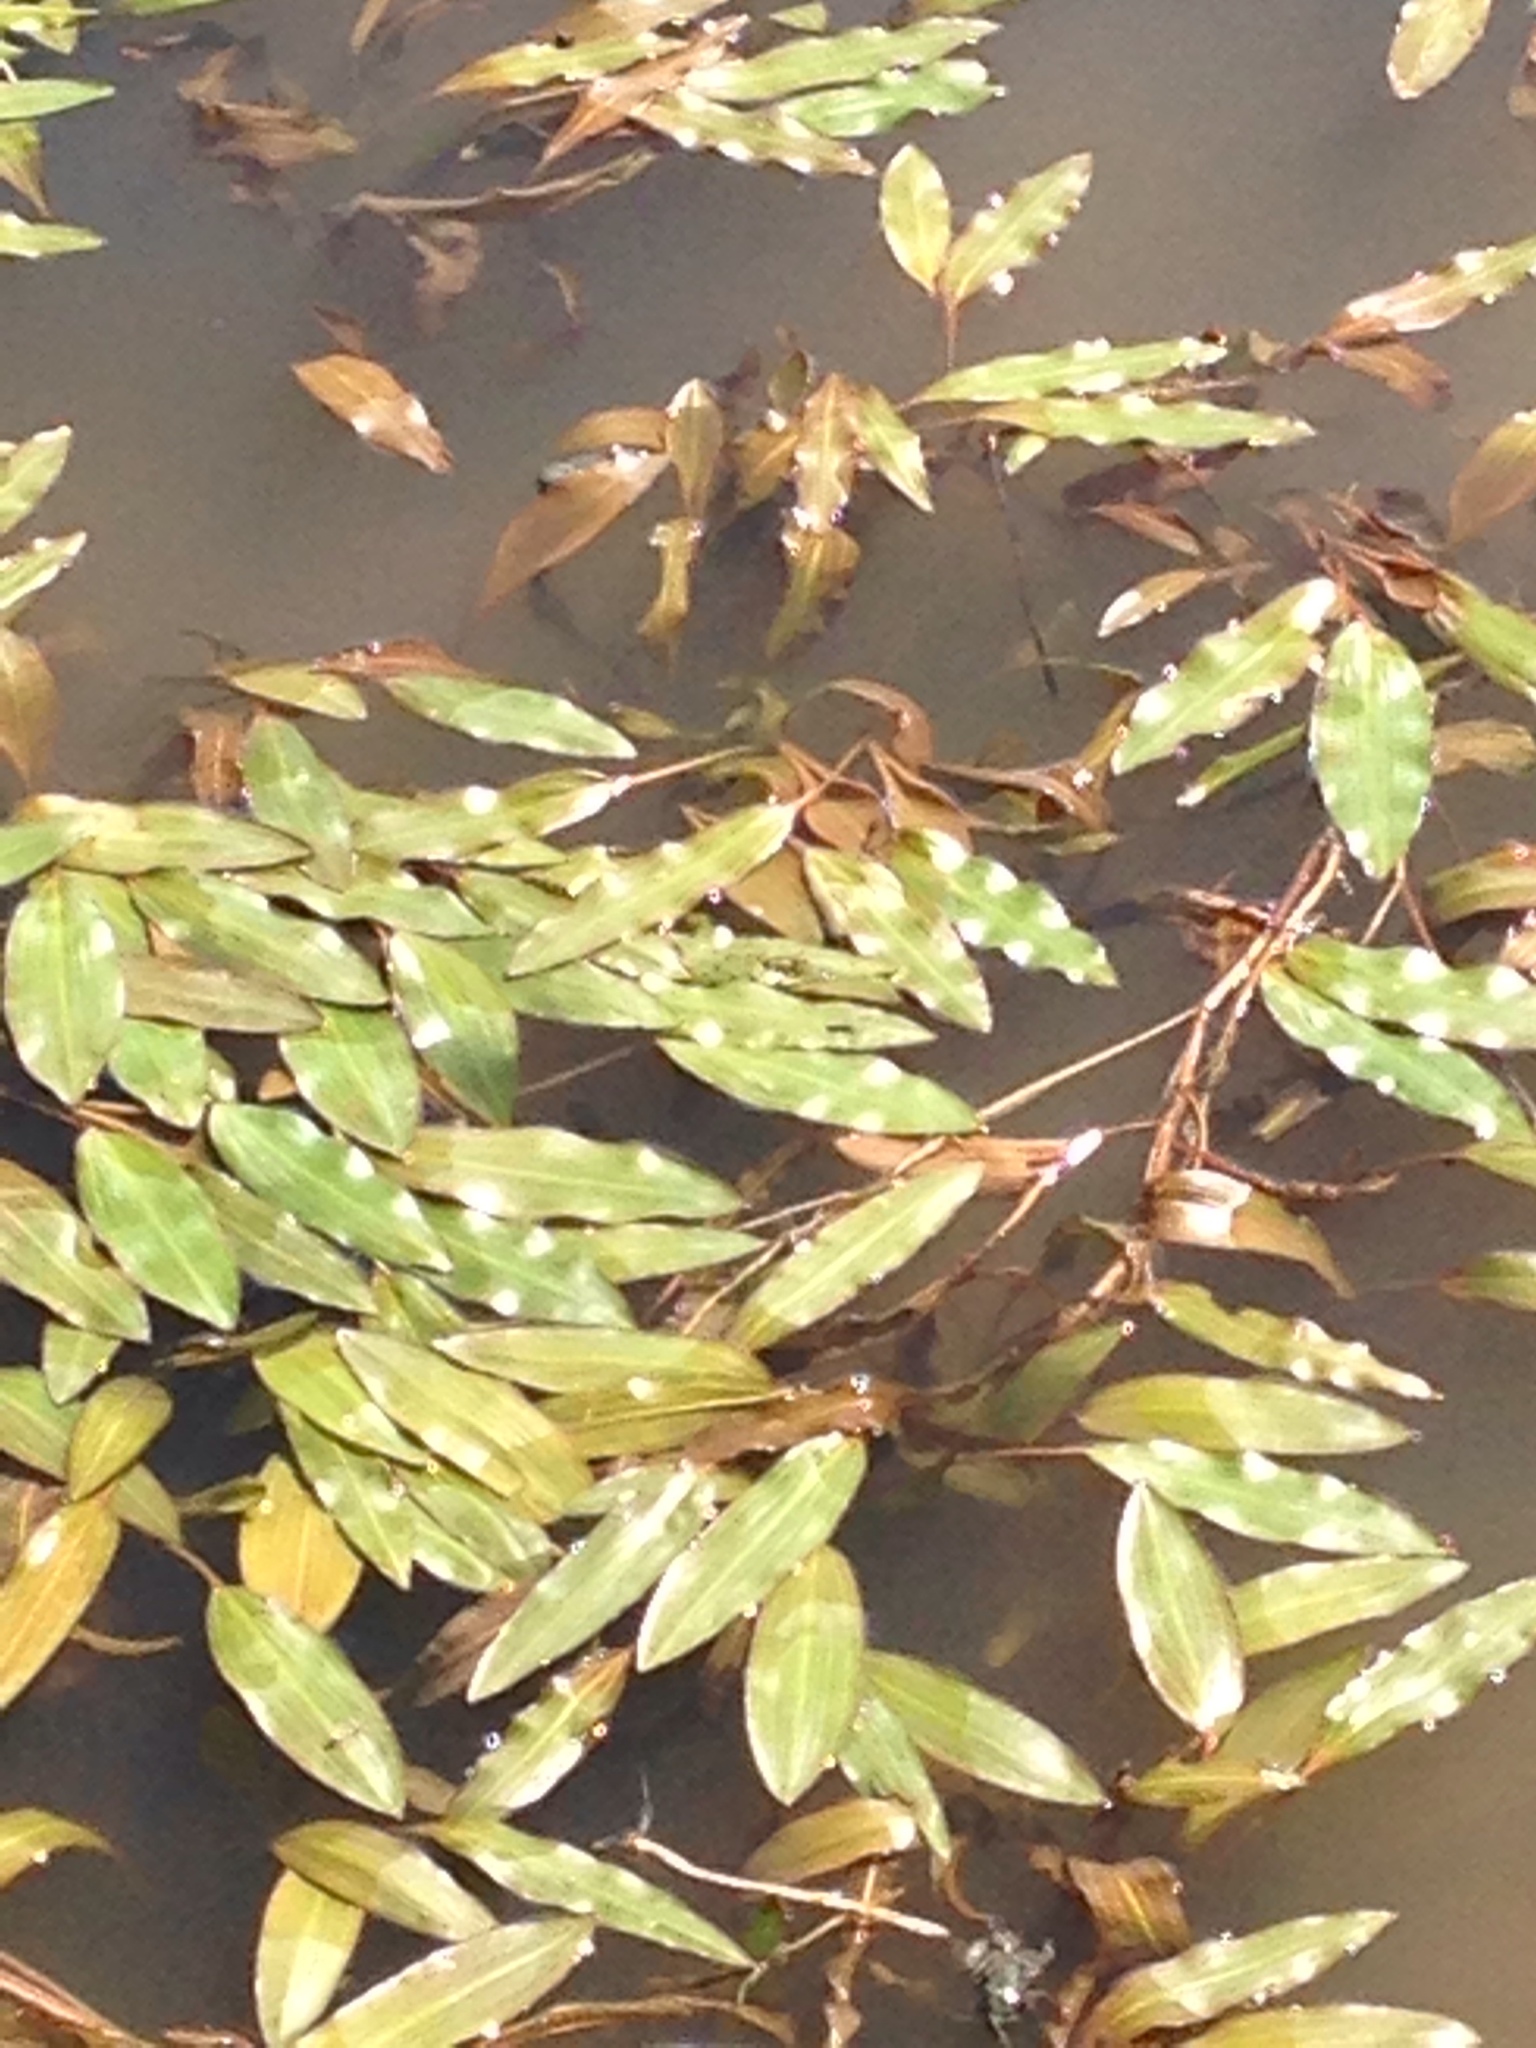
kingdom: Plantae
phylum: Tracheophyta
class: Liliopsida
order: Alismatales
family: Potamogetonaceae
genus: Potamogeton
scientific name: Potamogeton nodosus
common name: Loddon pondweed
